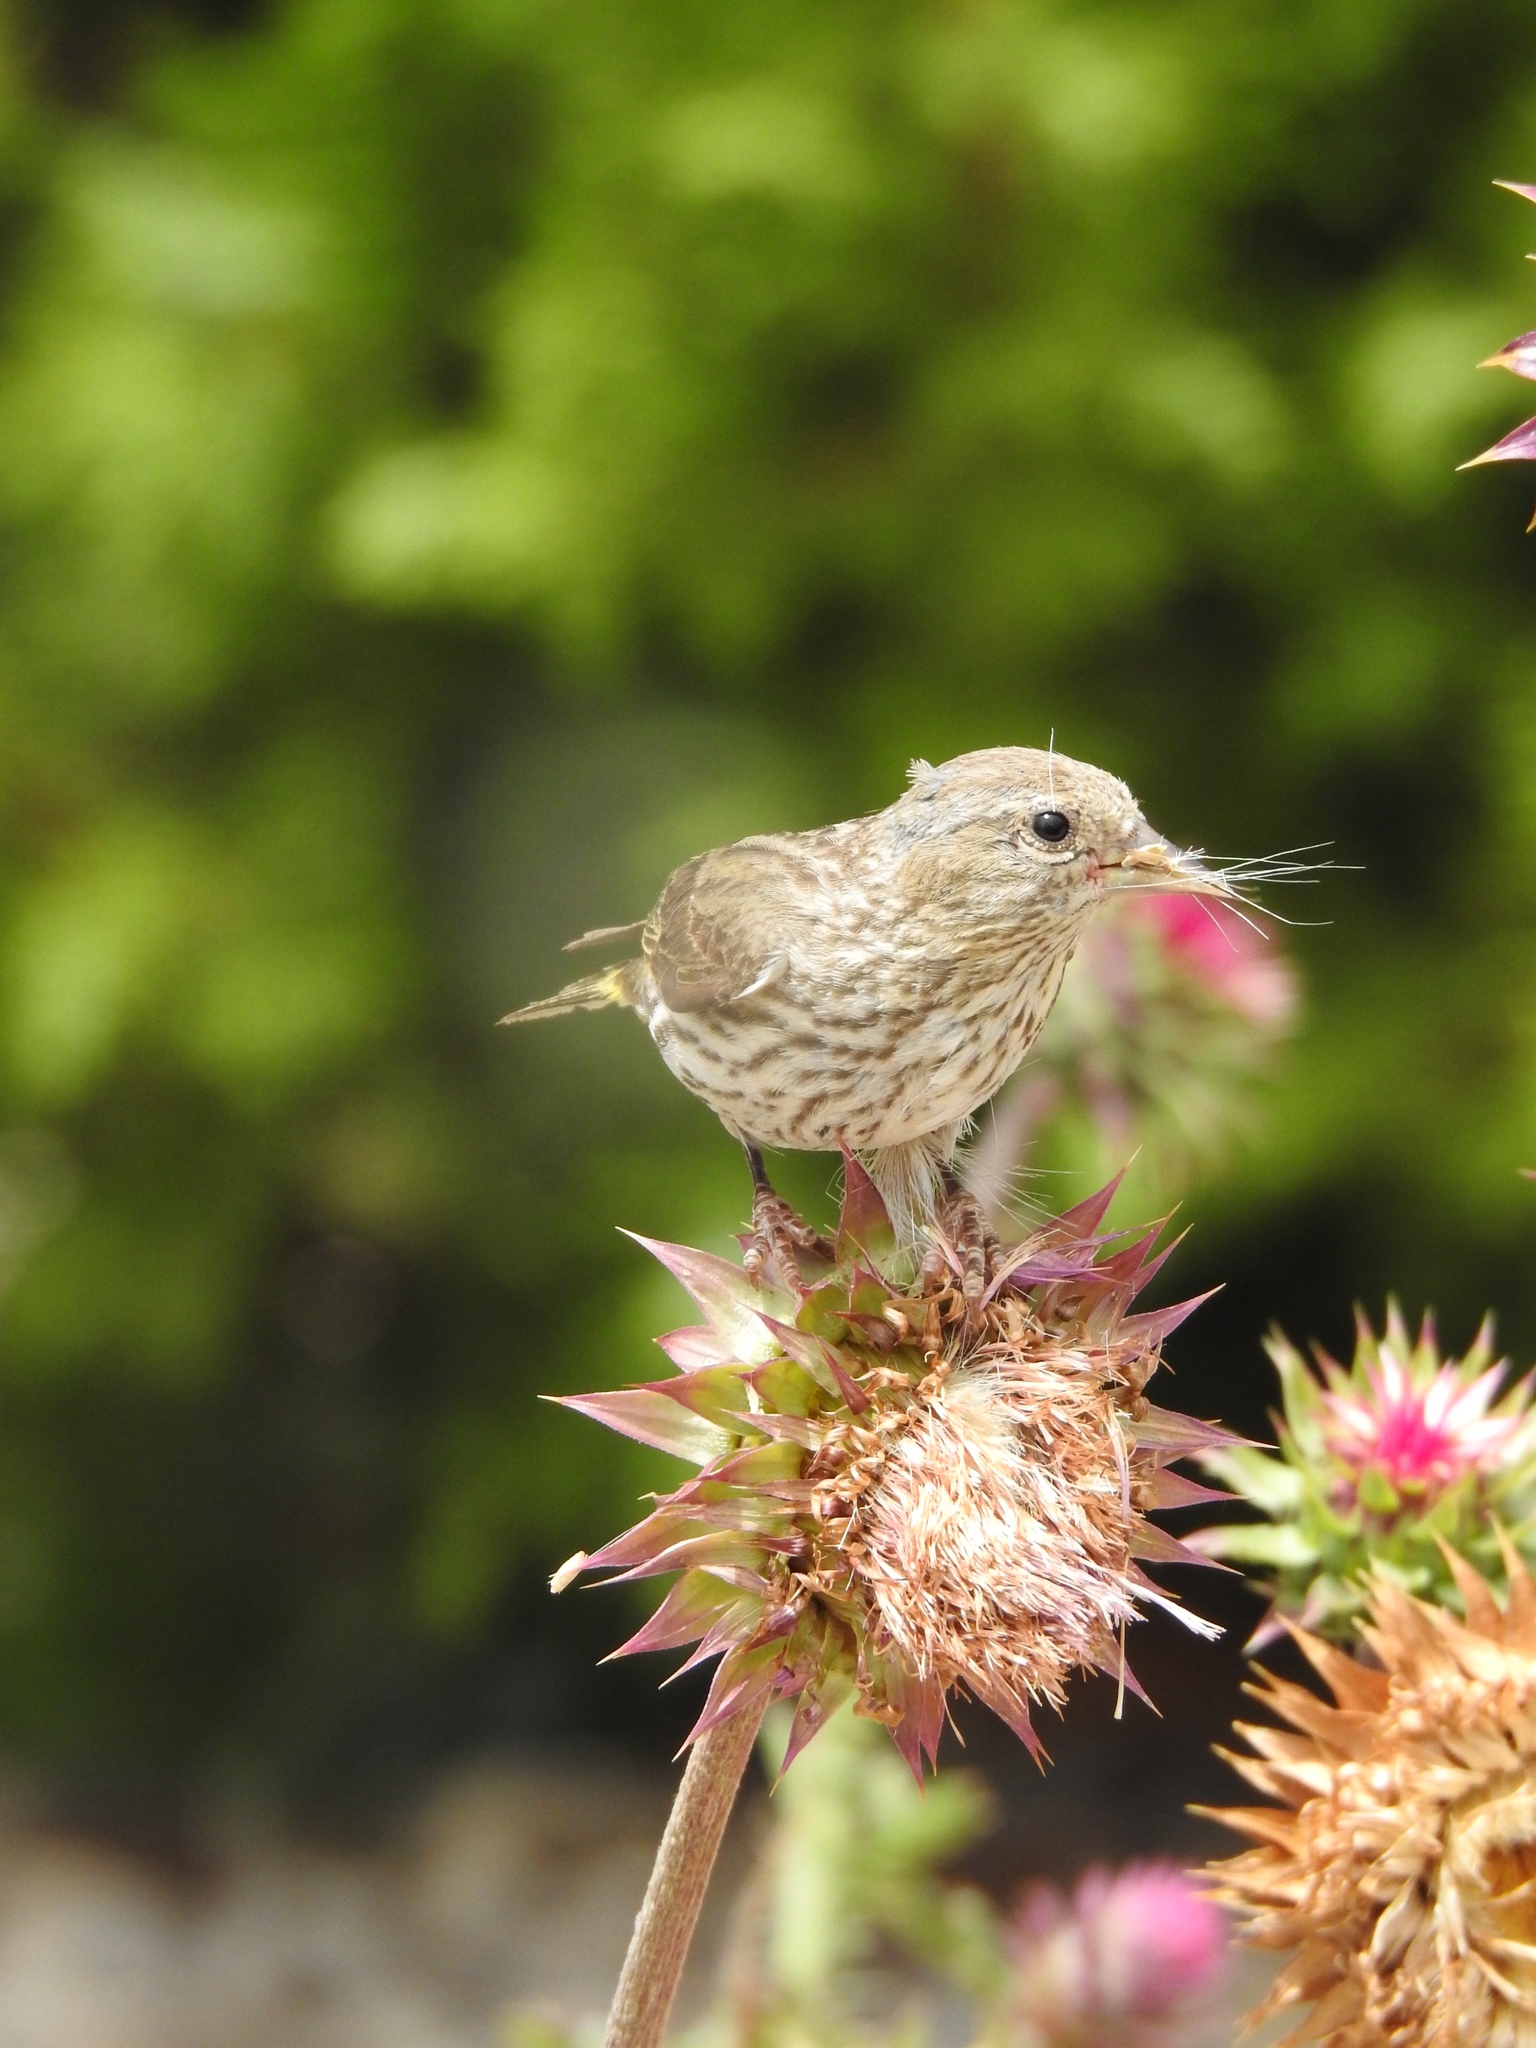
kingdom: Animalia
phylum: Chordata
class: Aves
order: Passeriformes
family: Fringillidae
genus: Spinus
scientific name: Spinus pinus
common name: Pine siskin
